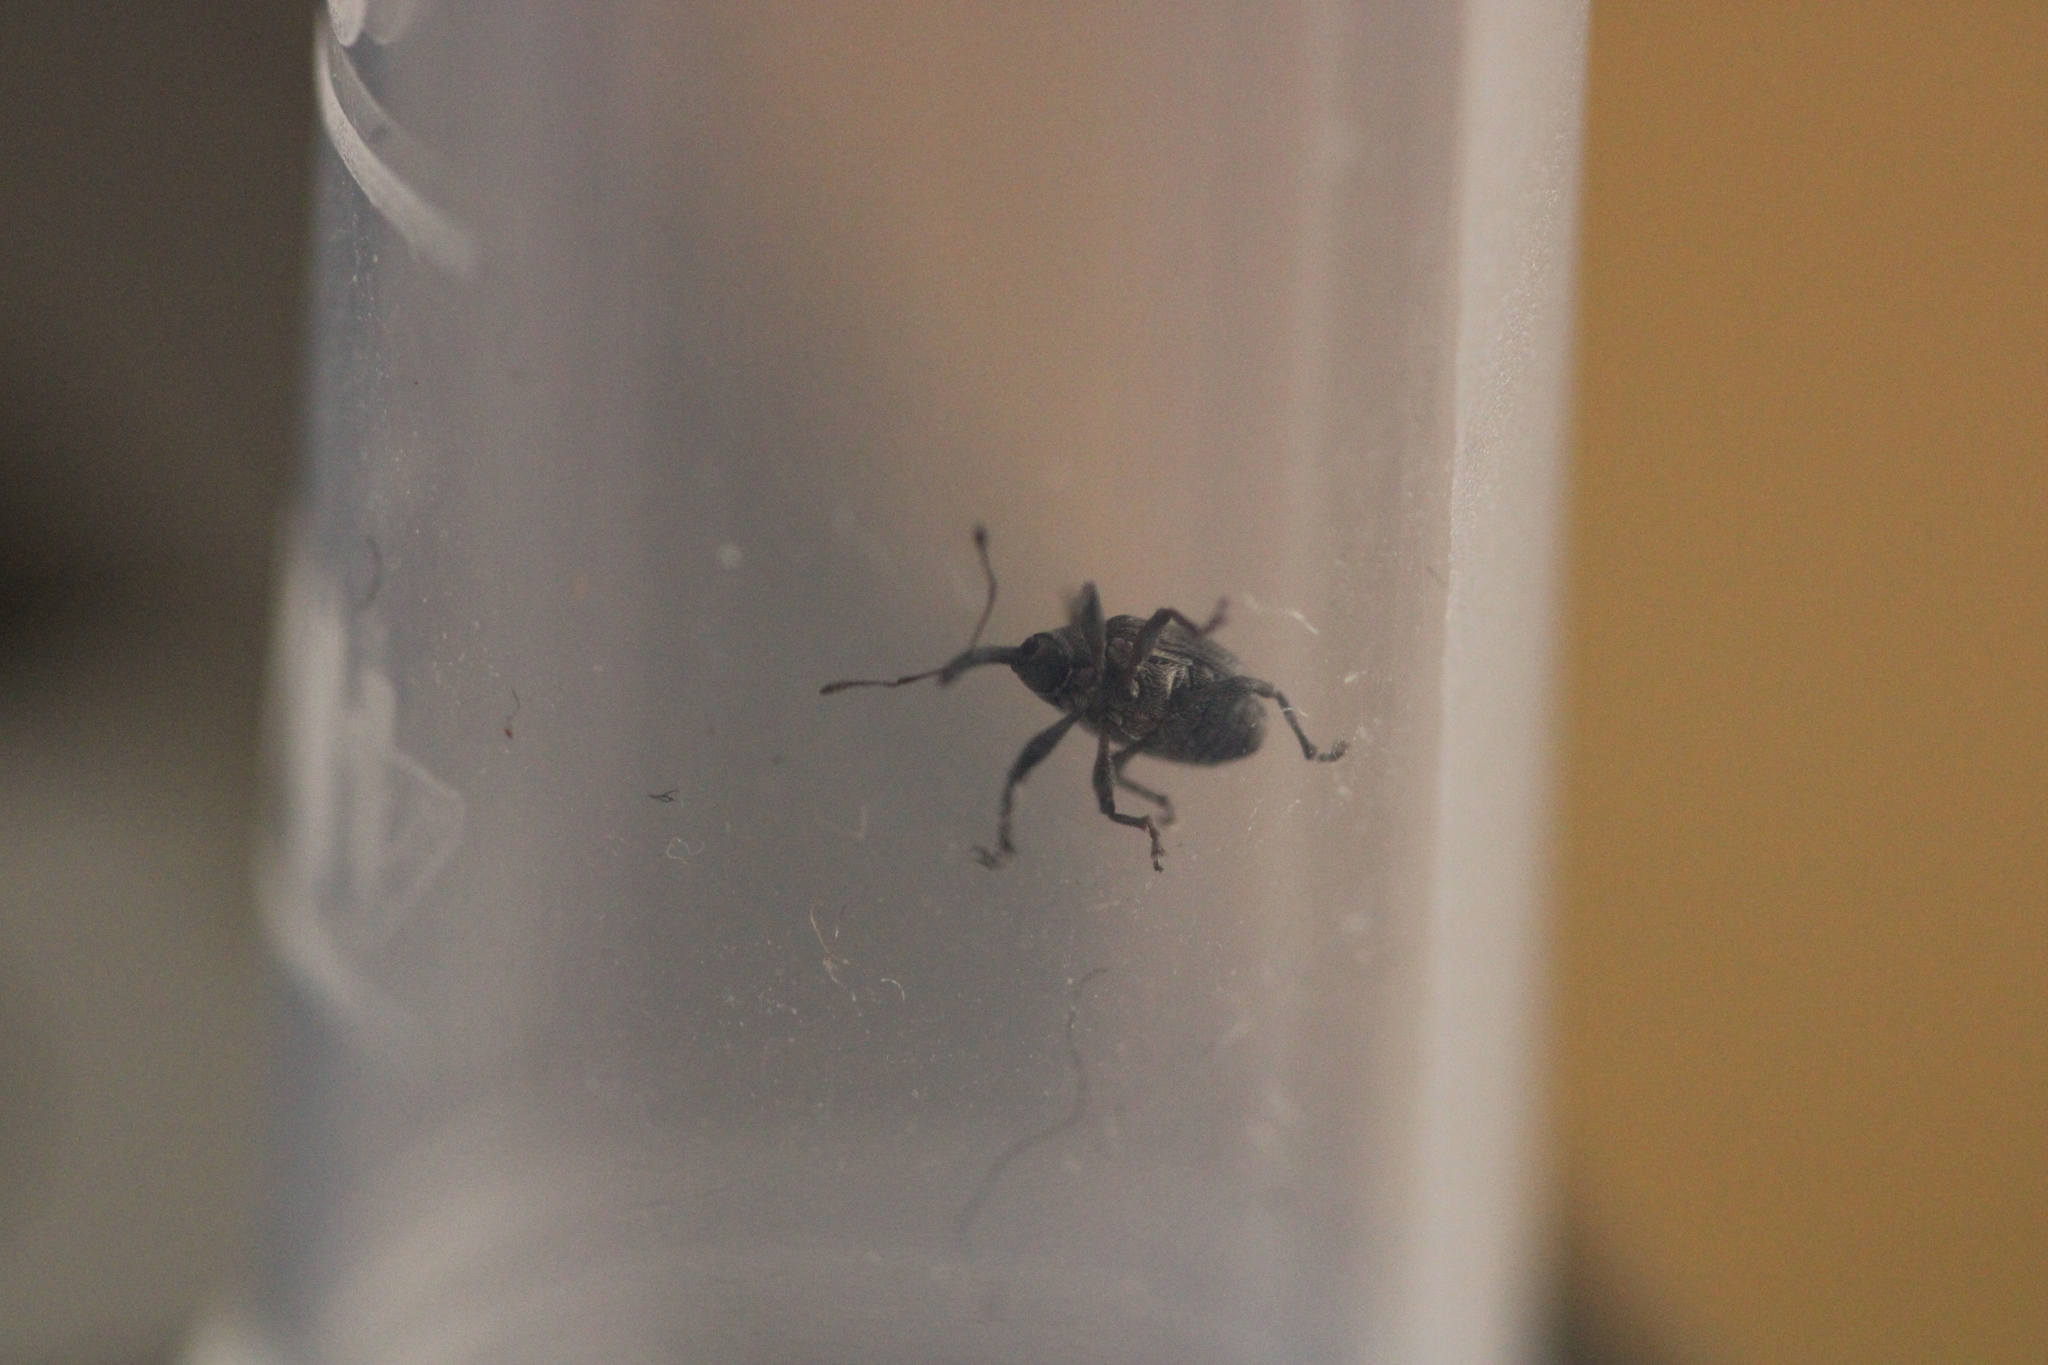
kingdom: Animalia
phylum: Arthropoda
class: Insecta
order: Coleoptera
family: Curculionidae
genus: Anthonomus
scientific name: Anthonomus rubi
